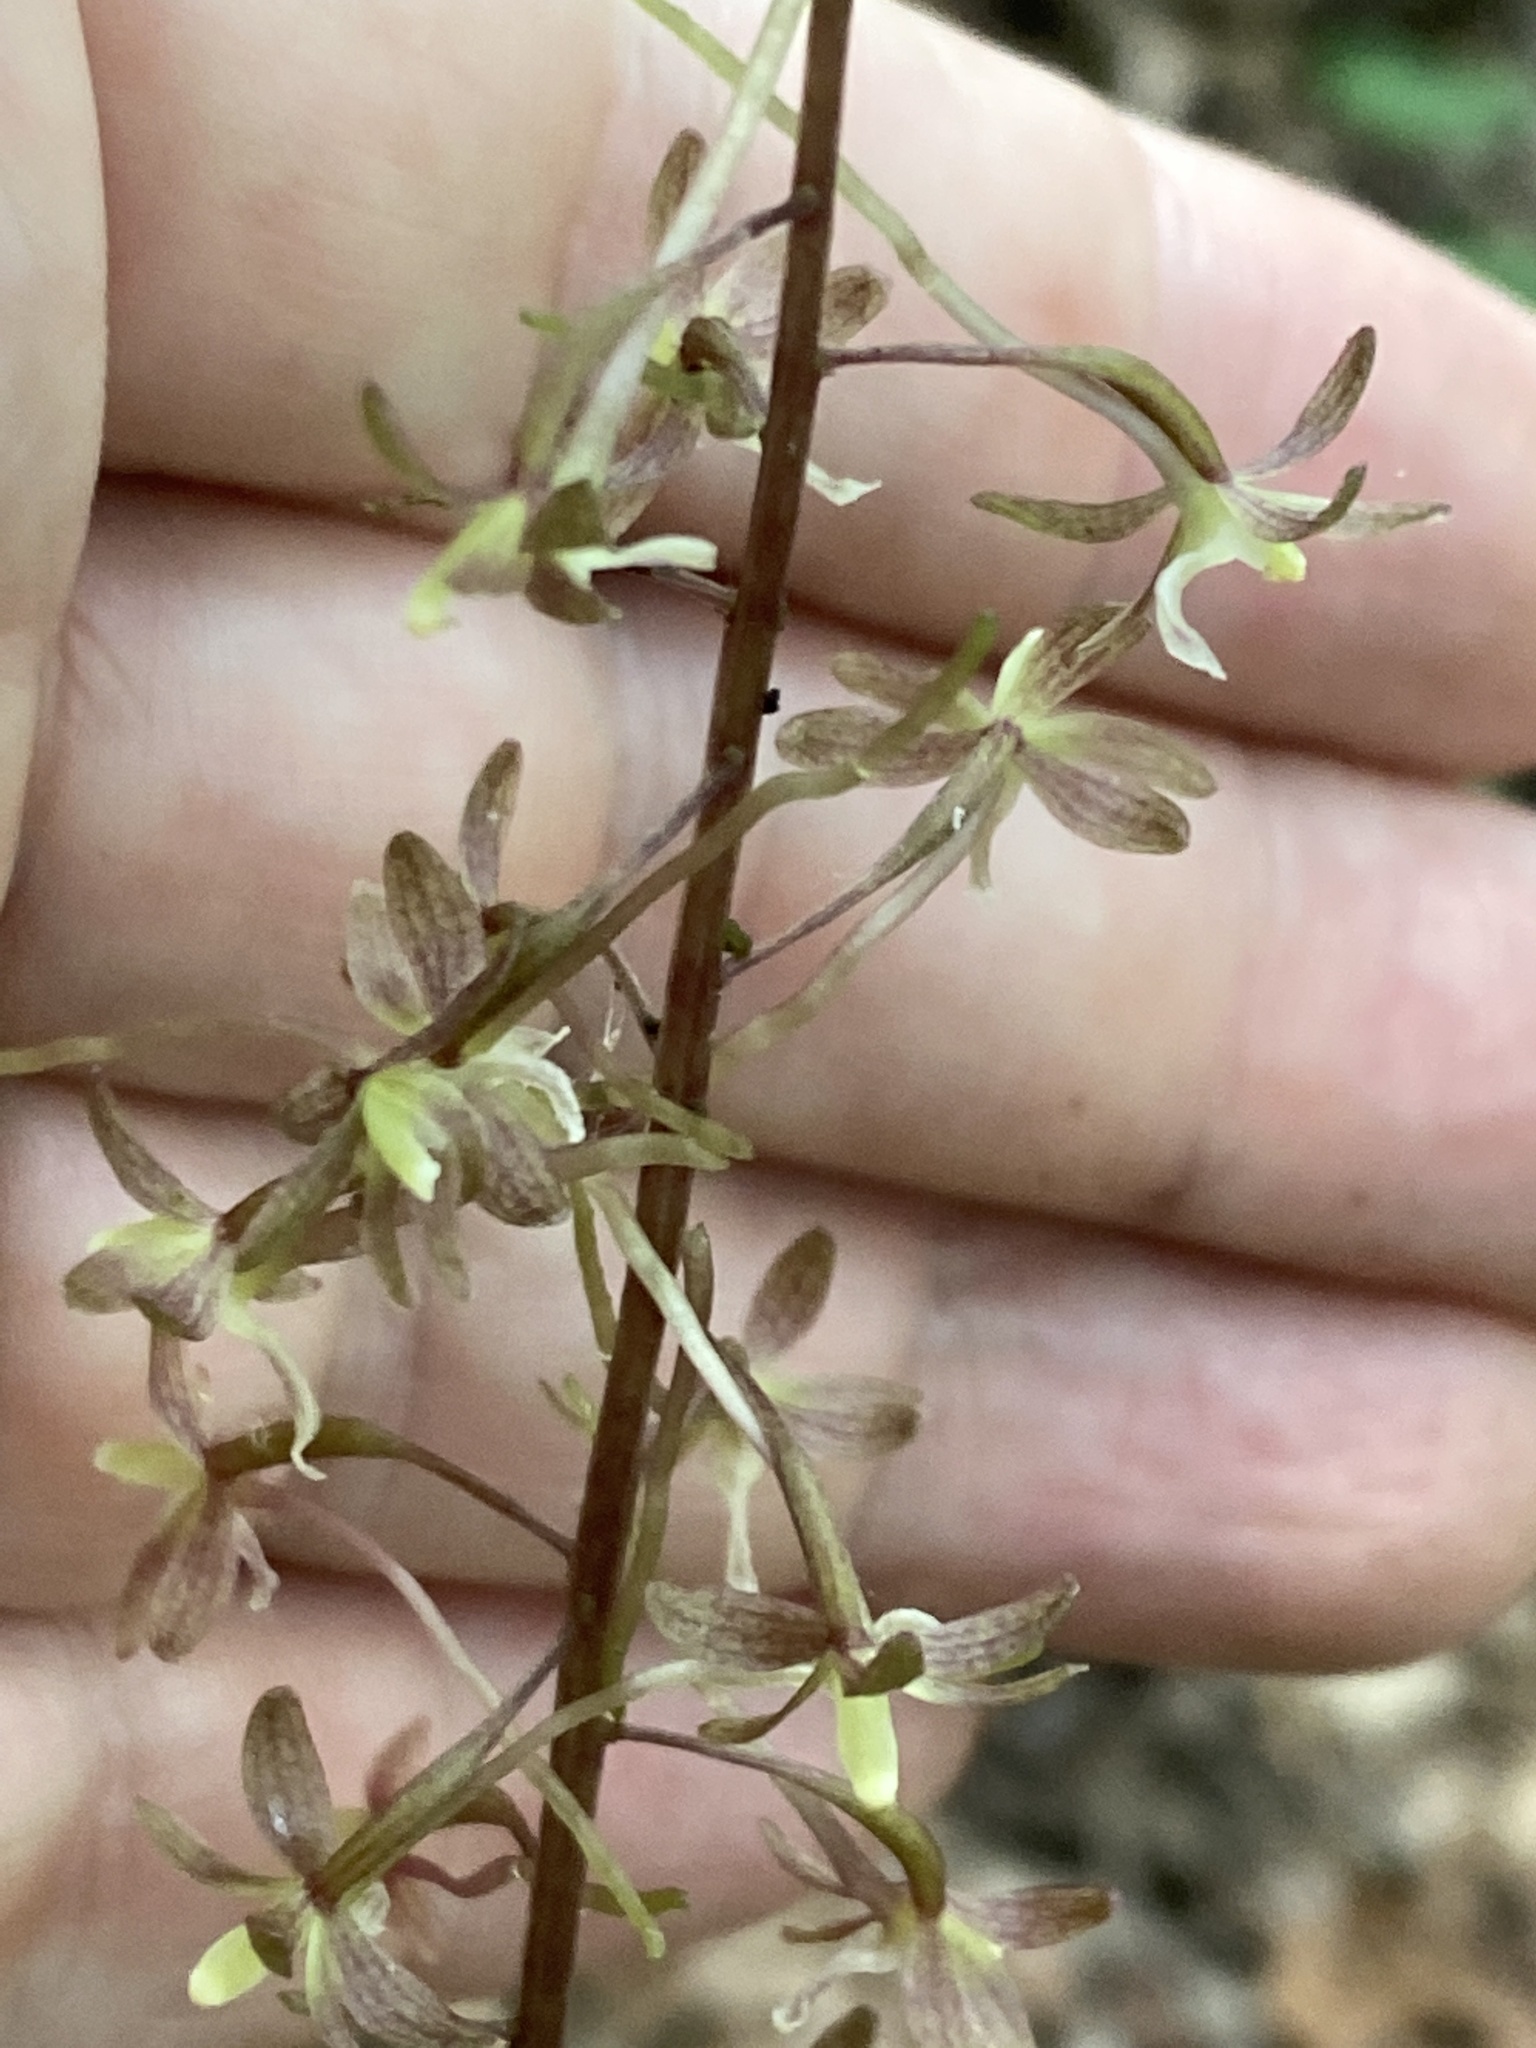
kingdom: Plantae
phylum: Tracheophyta
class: Liliopsida
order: Asparagales
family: Orchidaceae
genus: Tipularia
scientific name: Tipularia discolor
